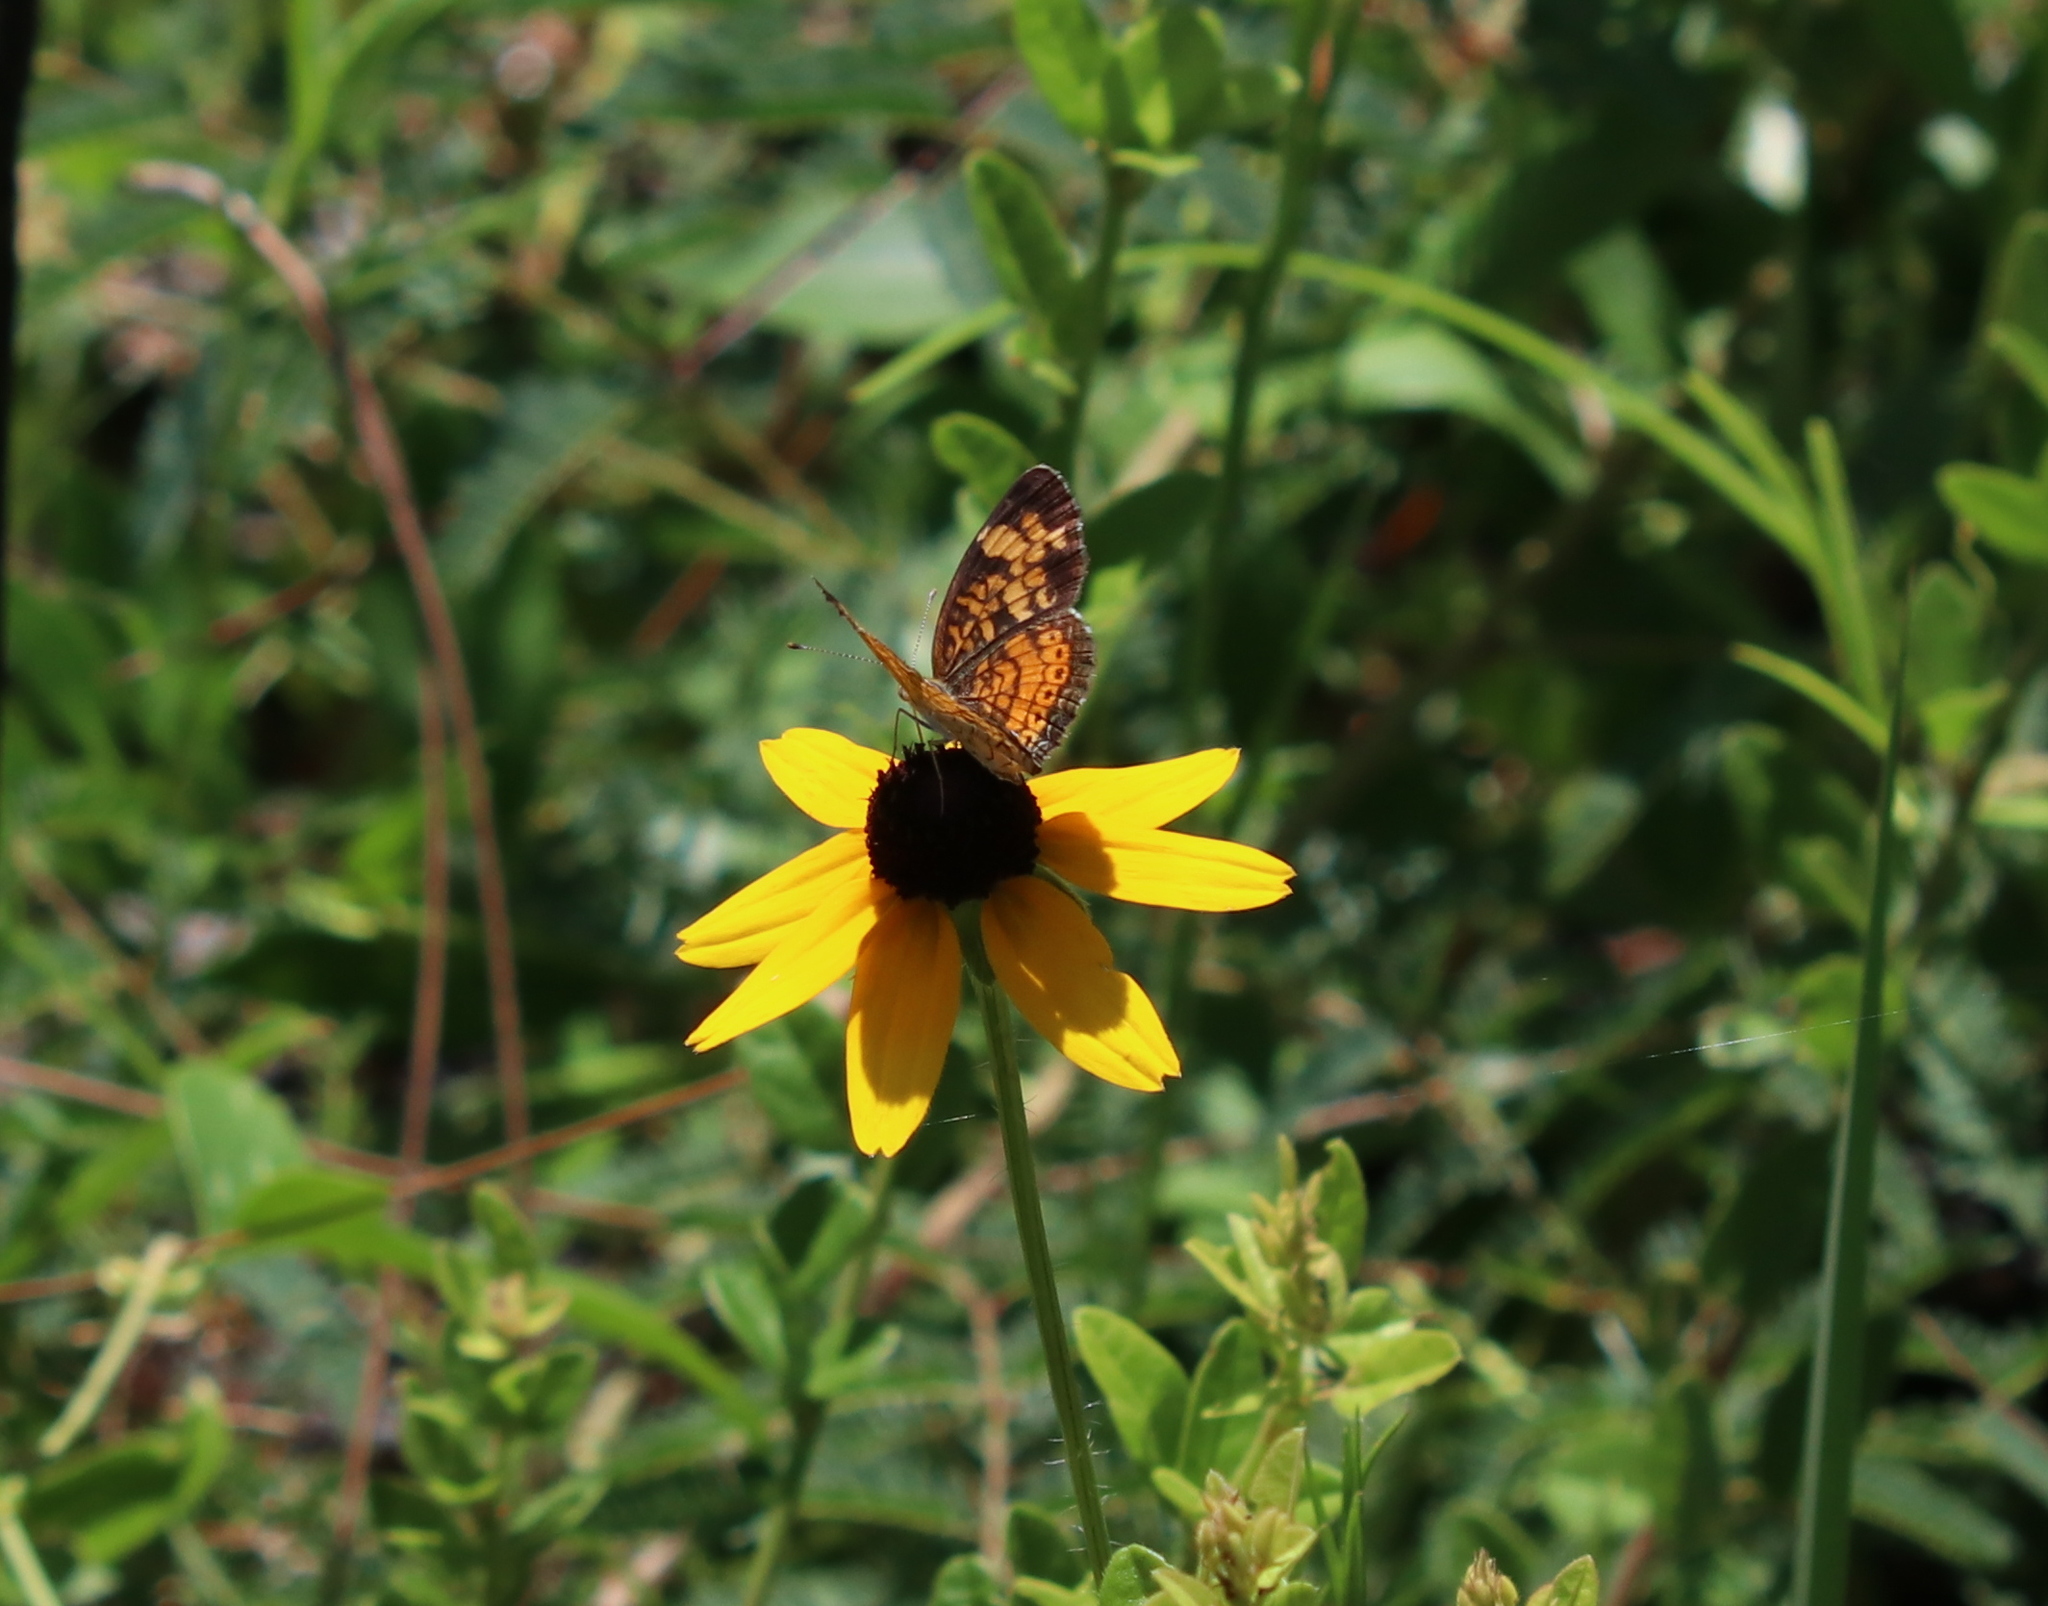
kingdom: Animalia
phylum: Arthropoda
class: Insecta
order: Lepidoptera
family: Nymphalidae
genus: Phyciodes
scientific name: Phyciodes tharos
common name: Pearl crescent
